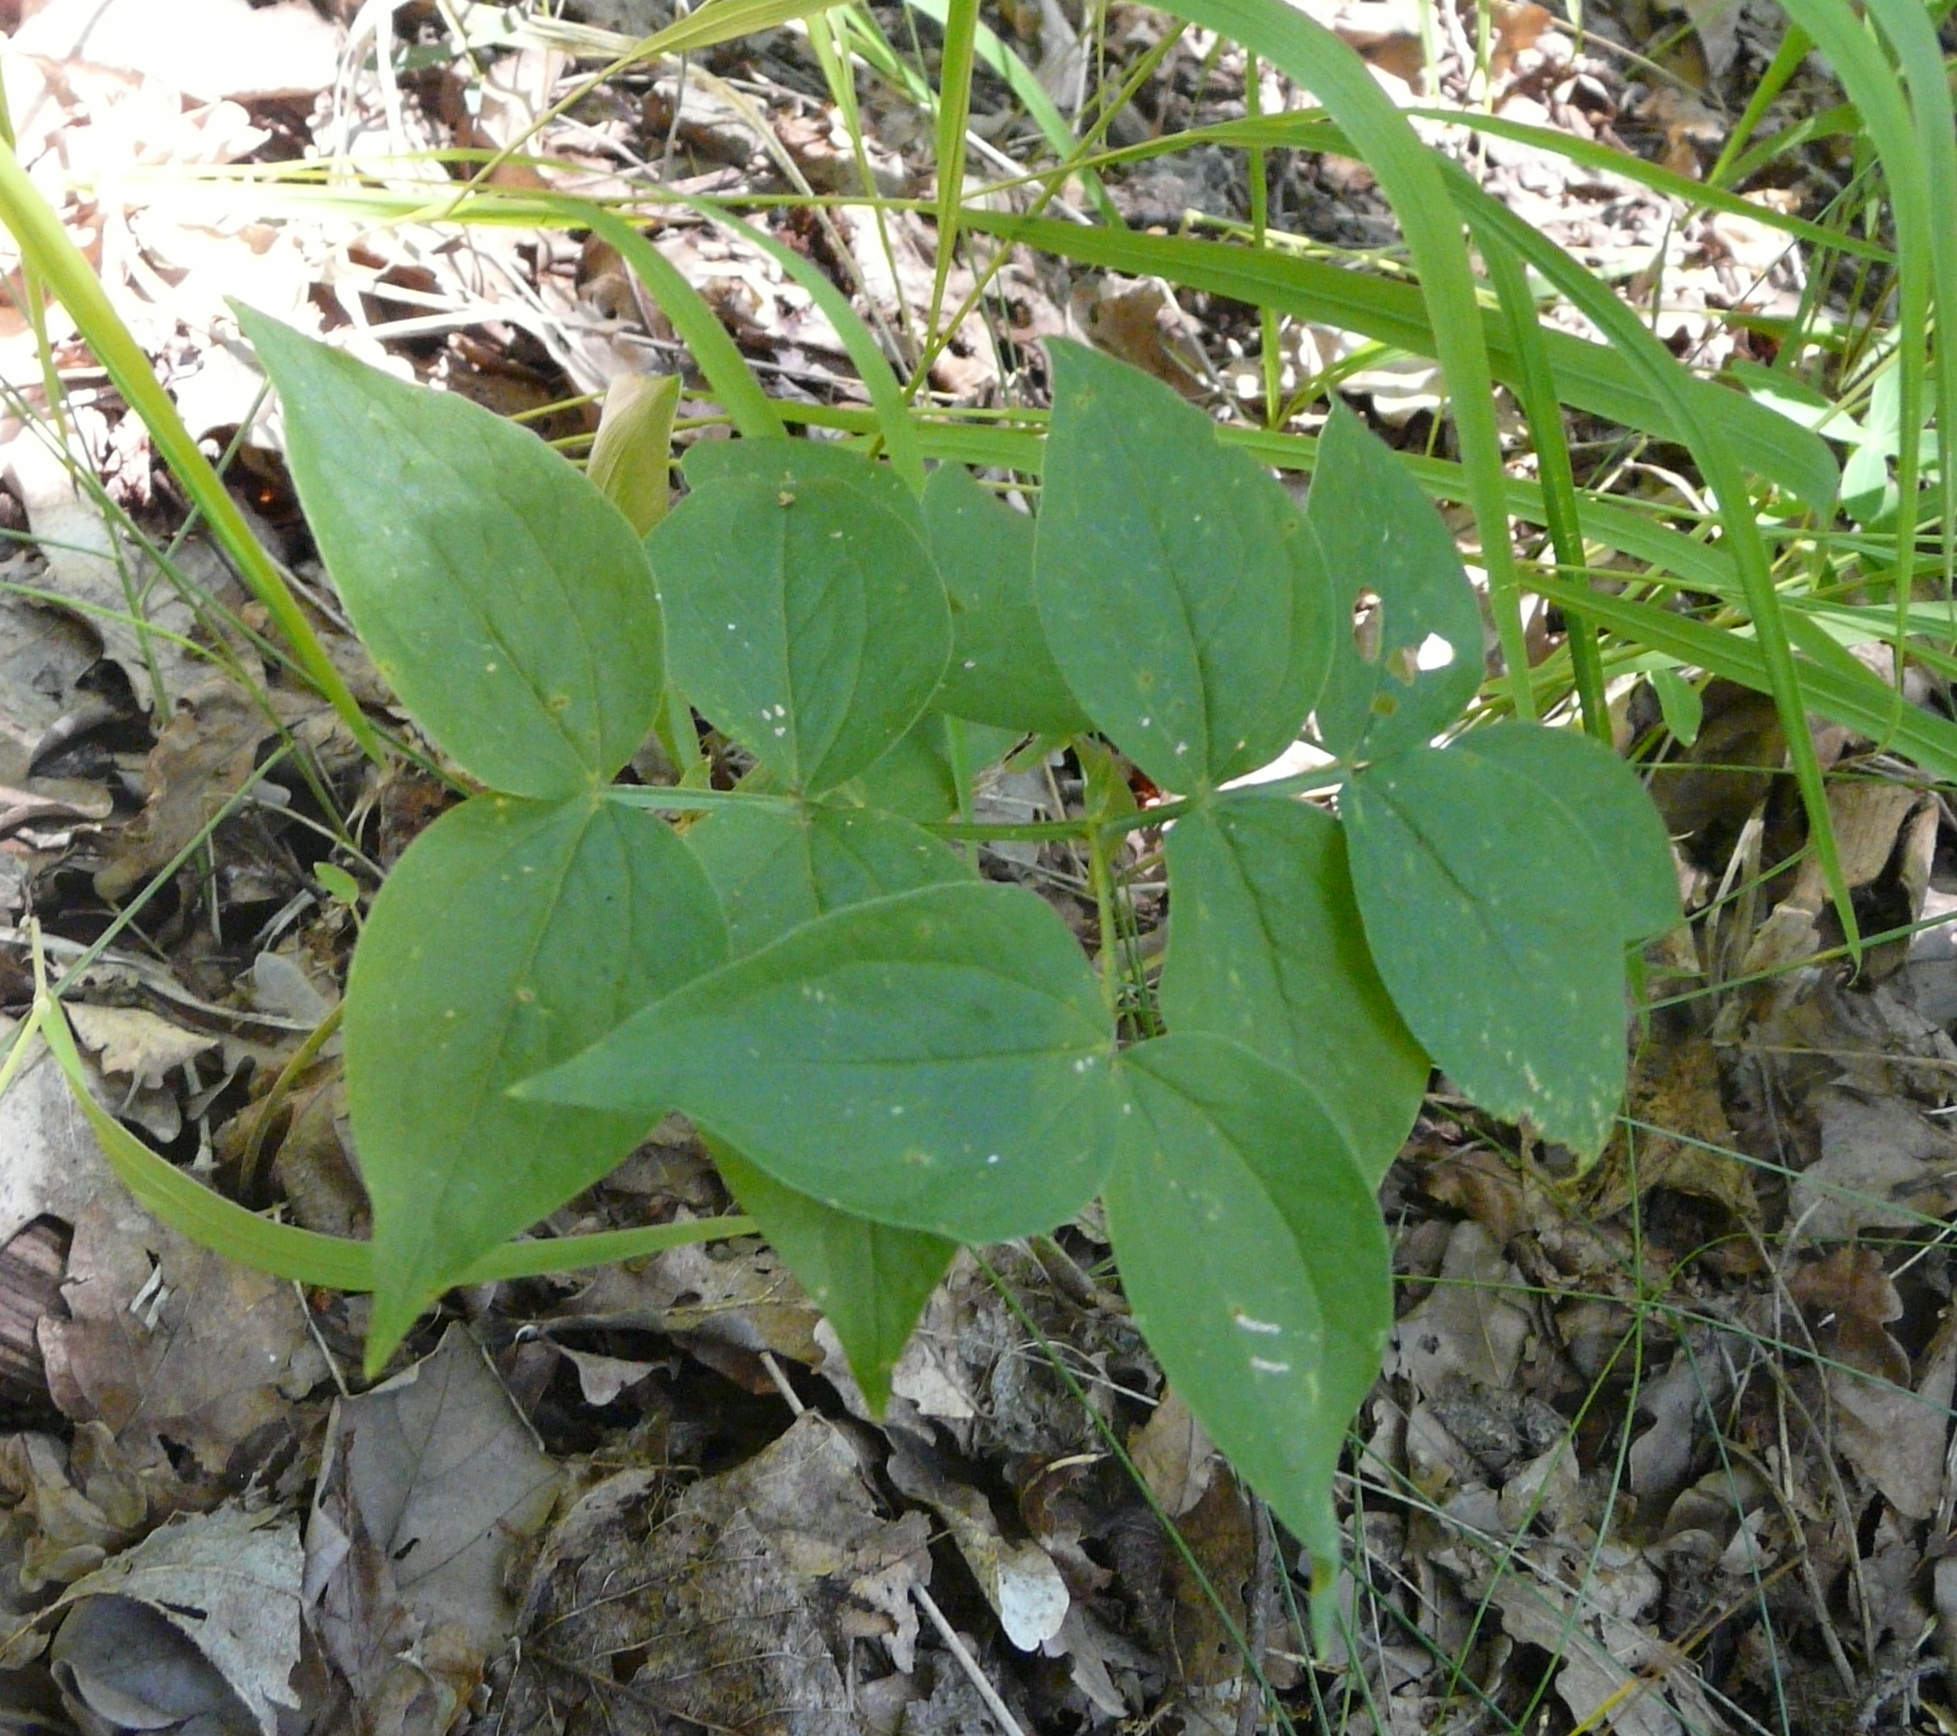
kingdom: Plantae
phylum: Tracheophyta
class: Magnoliopsida
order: Fabales
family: Fabaceae
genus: Lathyrus
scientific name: Lathyrus vernus
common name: Spring pea
